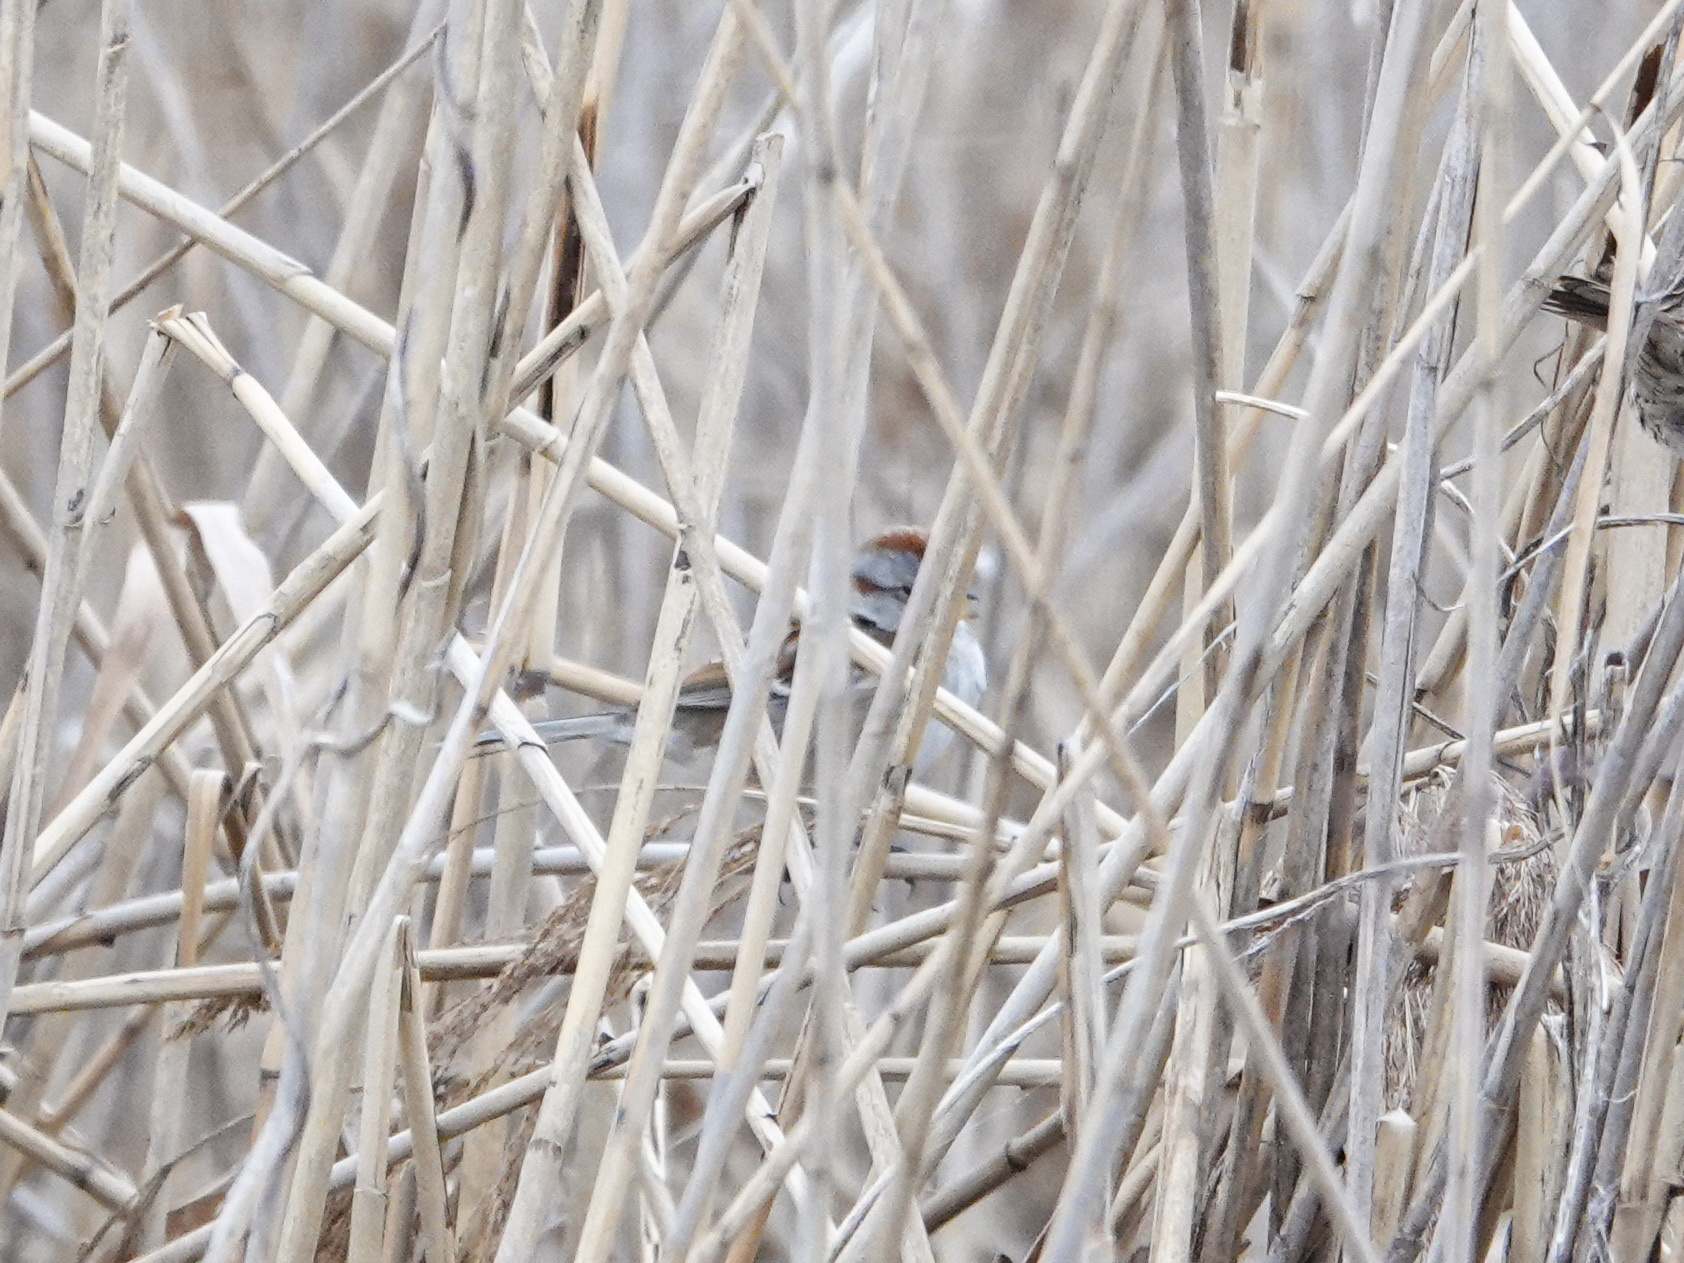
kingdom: Animalia
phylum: Chordata
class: Aves
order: Passeriformes
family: Passerellidae
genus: Spizelloides
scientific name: Spizelloides arborea
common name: American tree sparrow
